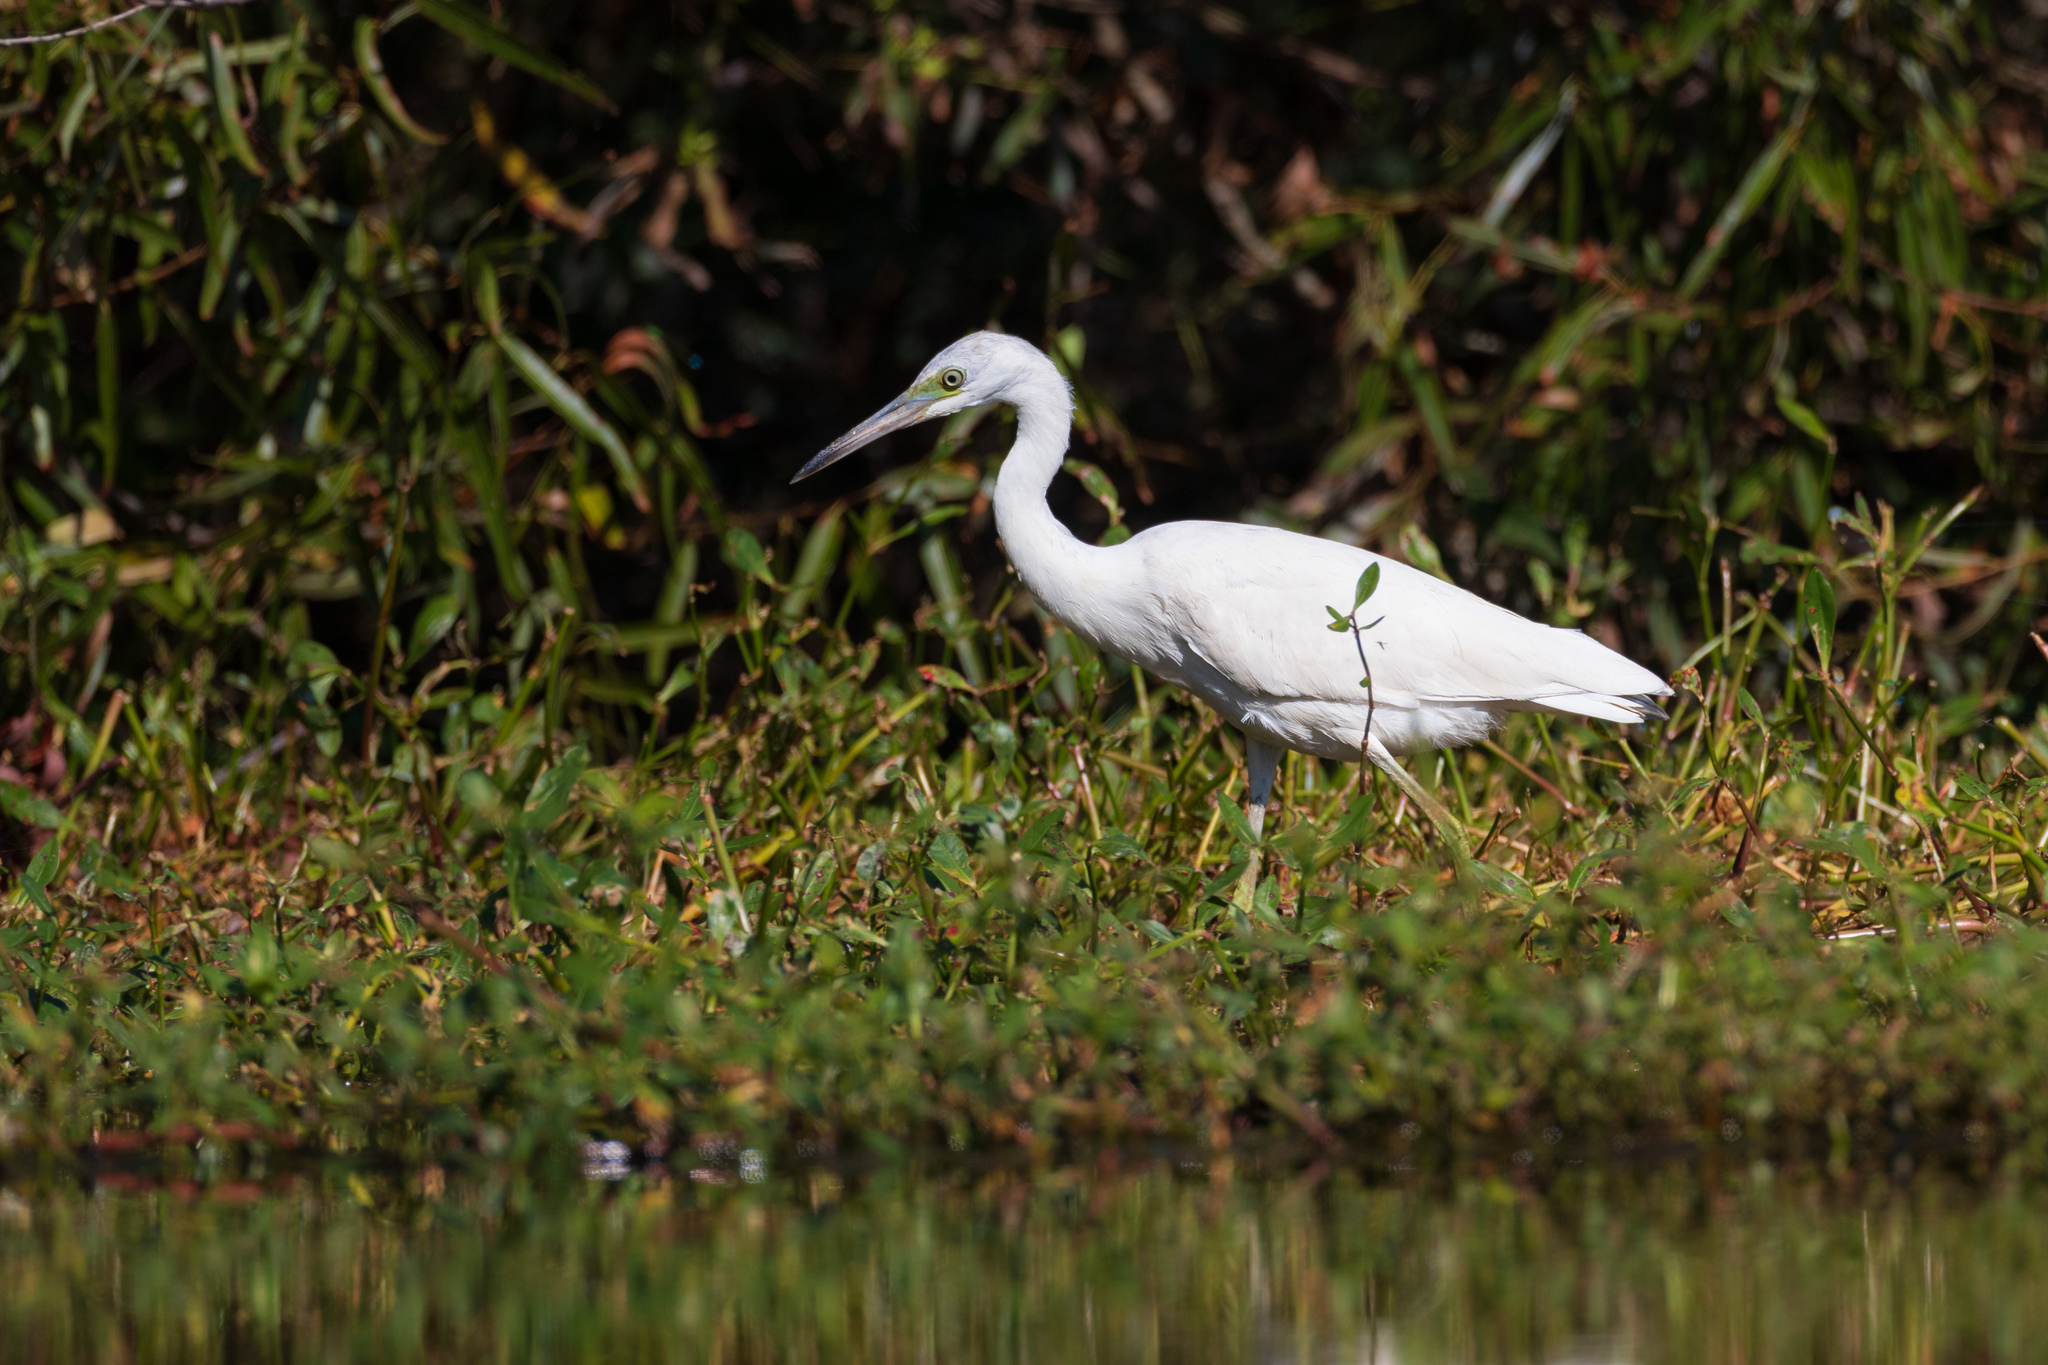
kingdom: Animalia
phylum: Chordata
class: Aves
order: Pelecaniformes
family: Ardeidae
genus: Egretta
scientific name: Egretta caerulea
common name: Little blue heron
